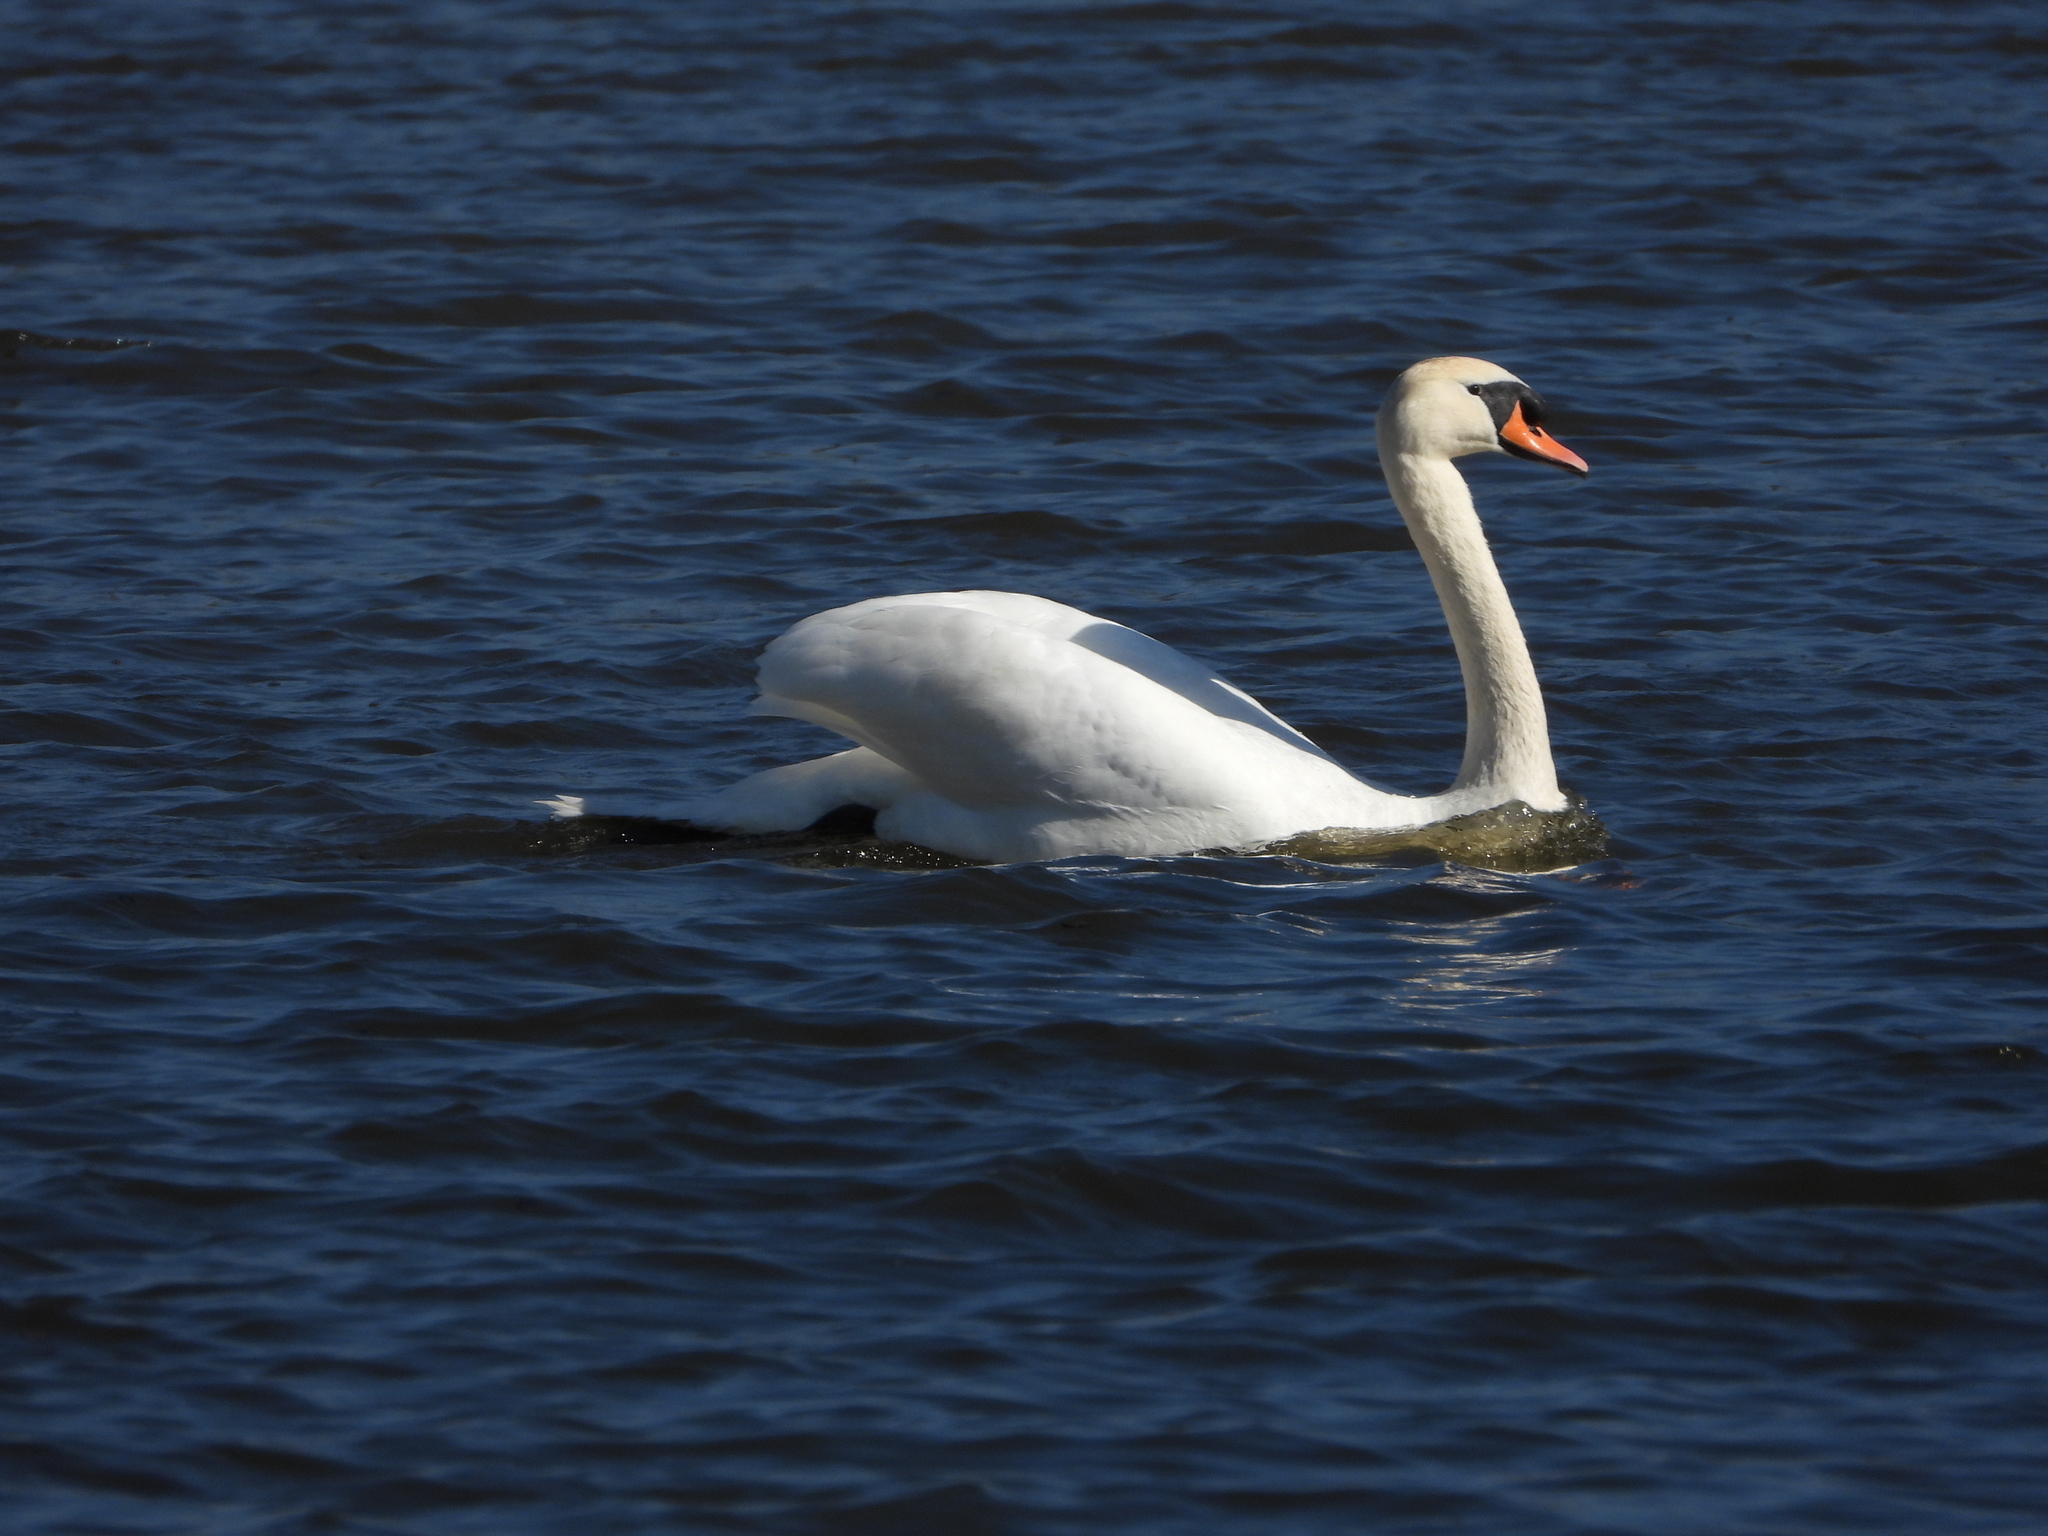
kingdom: Animalia
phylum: Chordata
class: Aves
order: Anseriformes
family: Anatidae
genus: Cygnus
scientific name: Cygnus olor
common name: Mute swan
